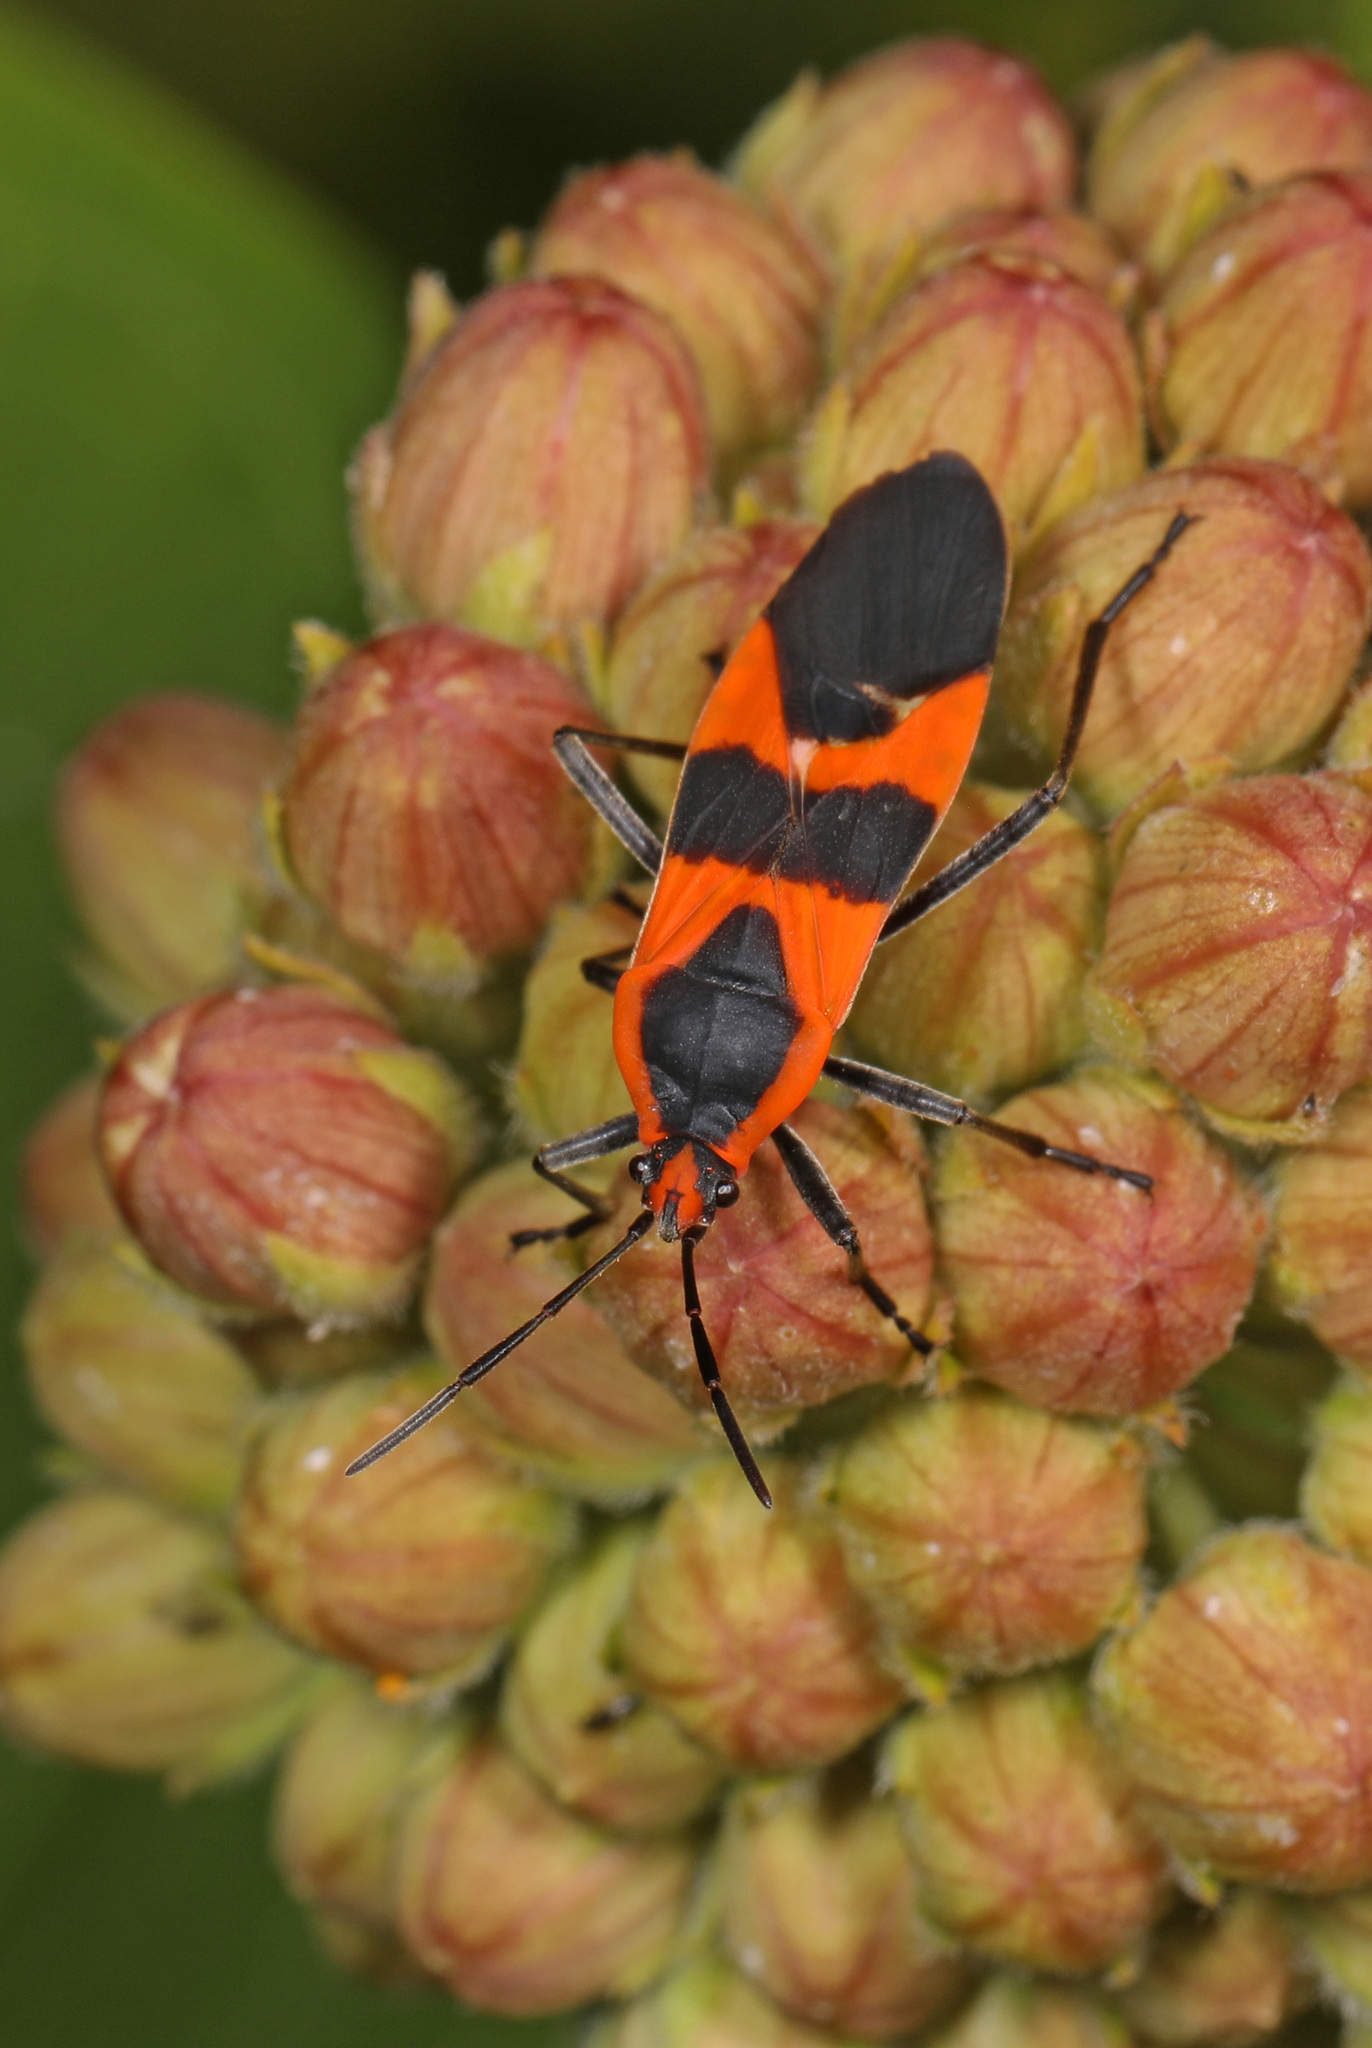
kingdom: Animalia
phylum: Arthropoda
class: Insecta
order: Hemiptera
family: Lygaeidae
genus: Oncopeltus
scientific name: Oncopeltus fasciatus
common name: Large milkweed bug
